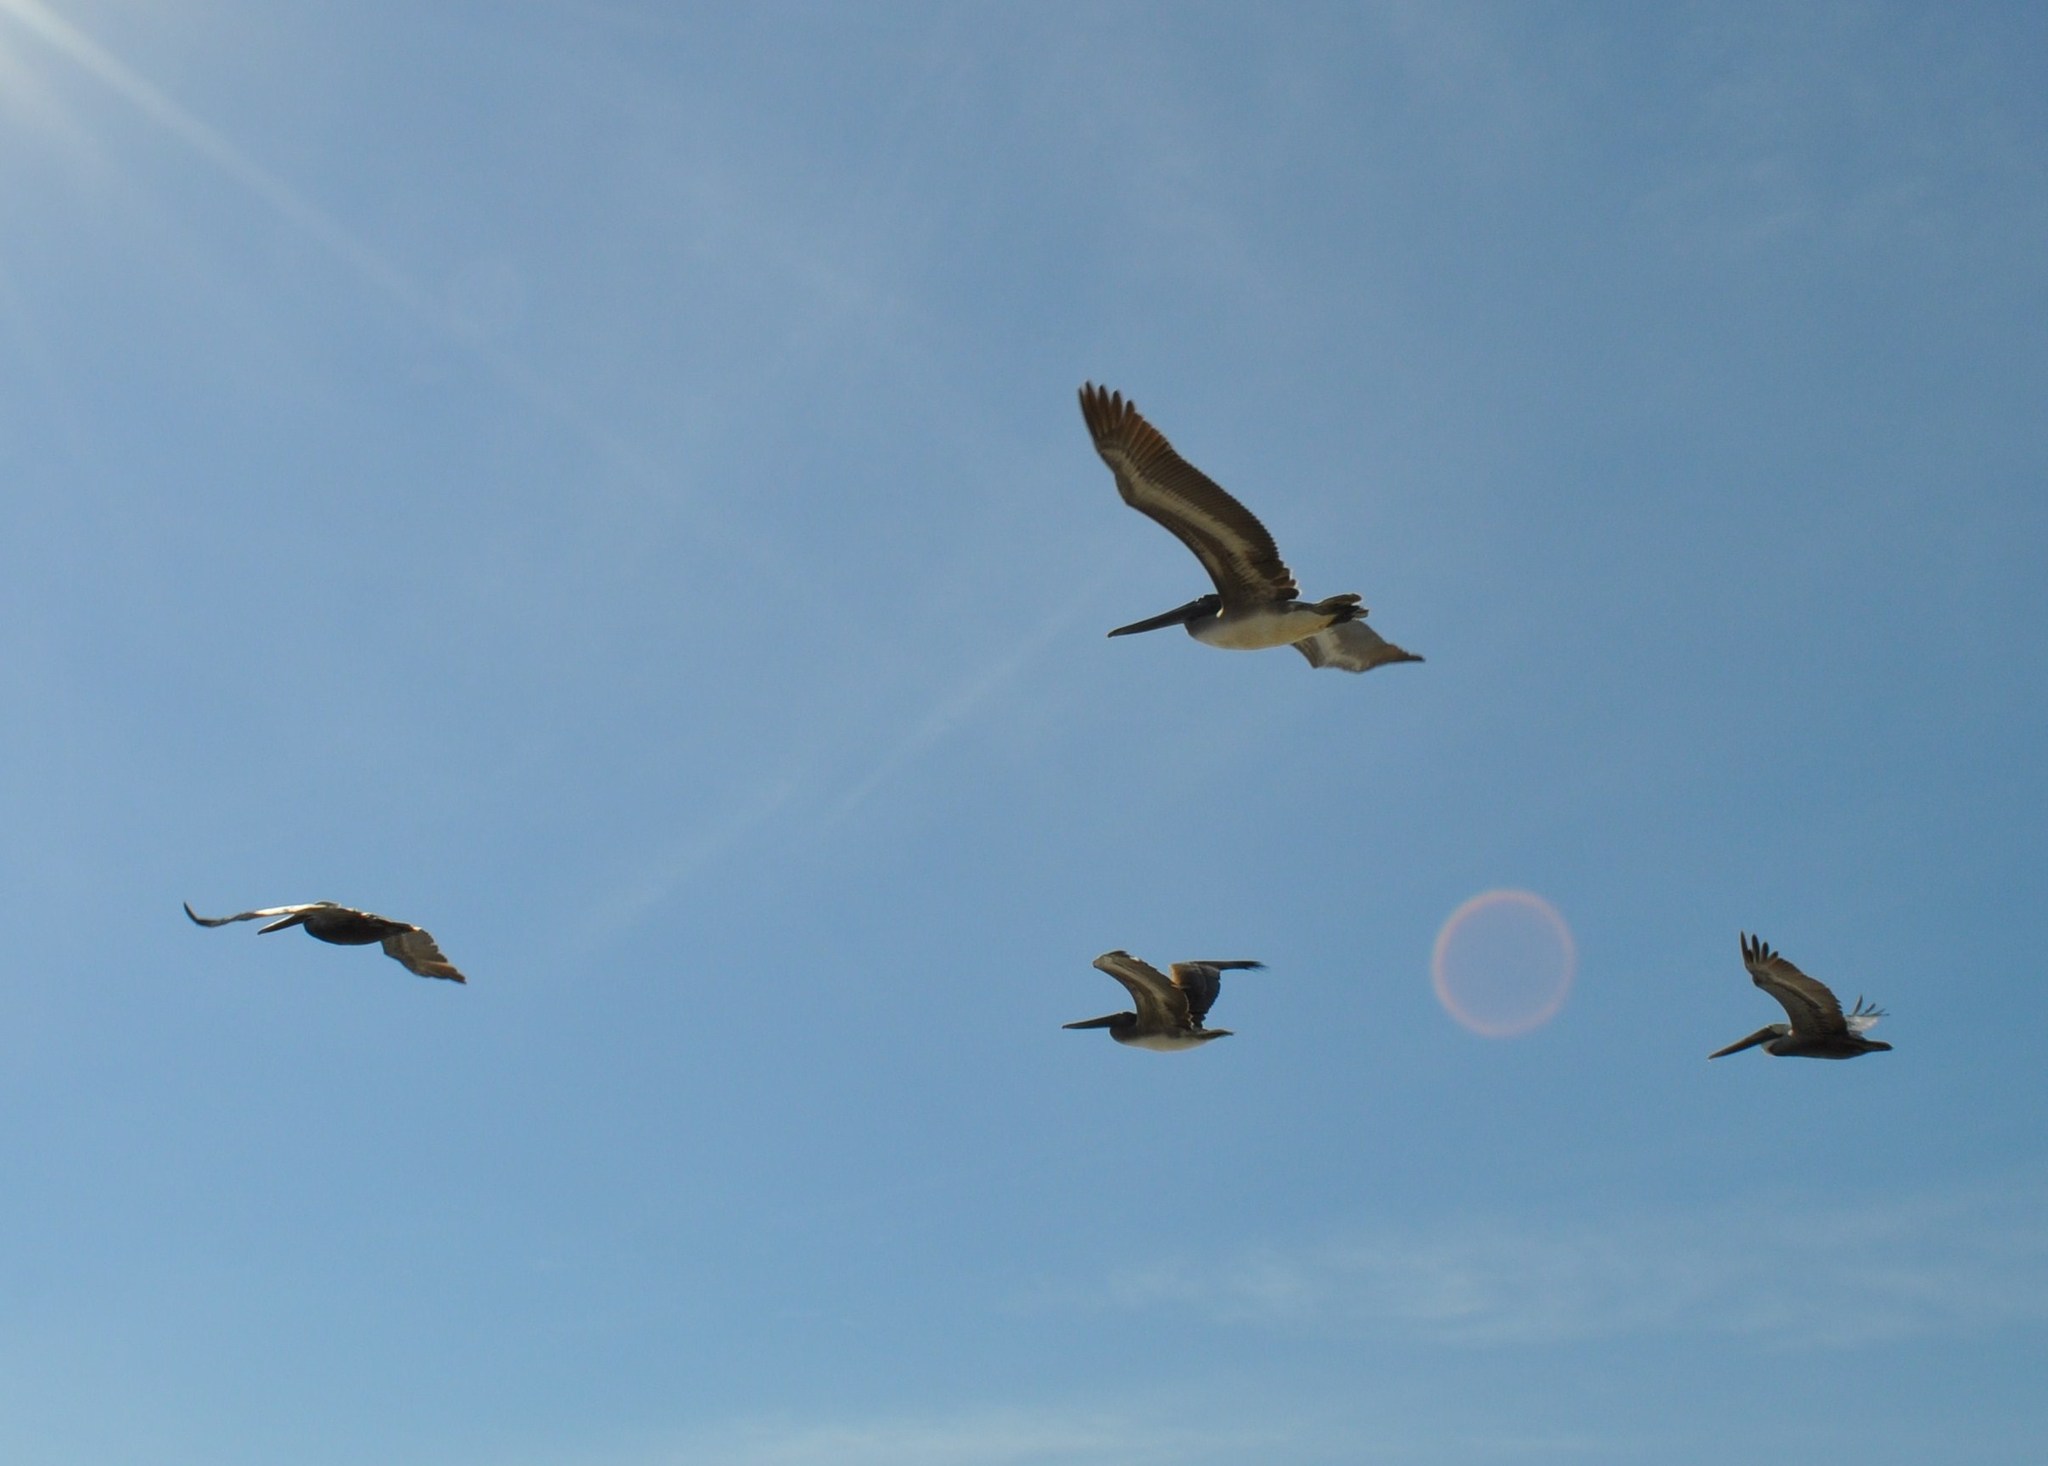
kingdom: Animalia
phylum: Chordata
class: Aves
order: Pelecaniformes
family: Pelecanidae
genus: Pelecanus
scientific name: Pelecanus occidentalis
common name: Brown pelican
